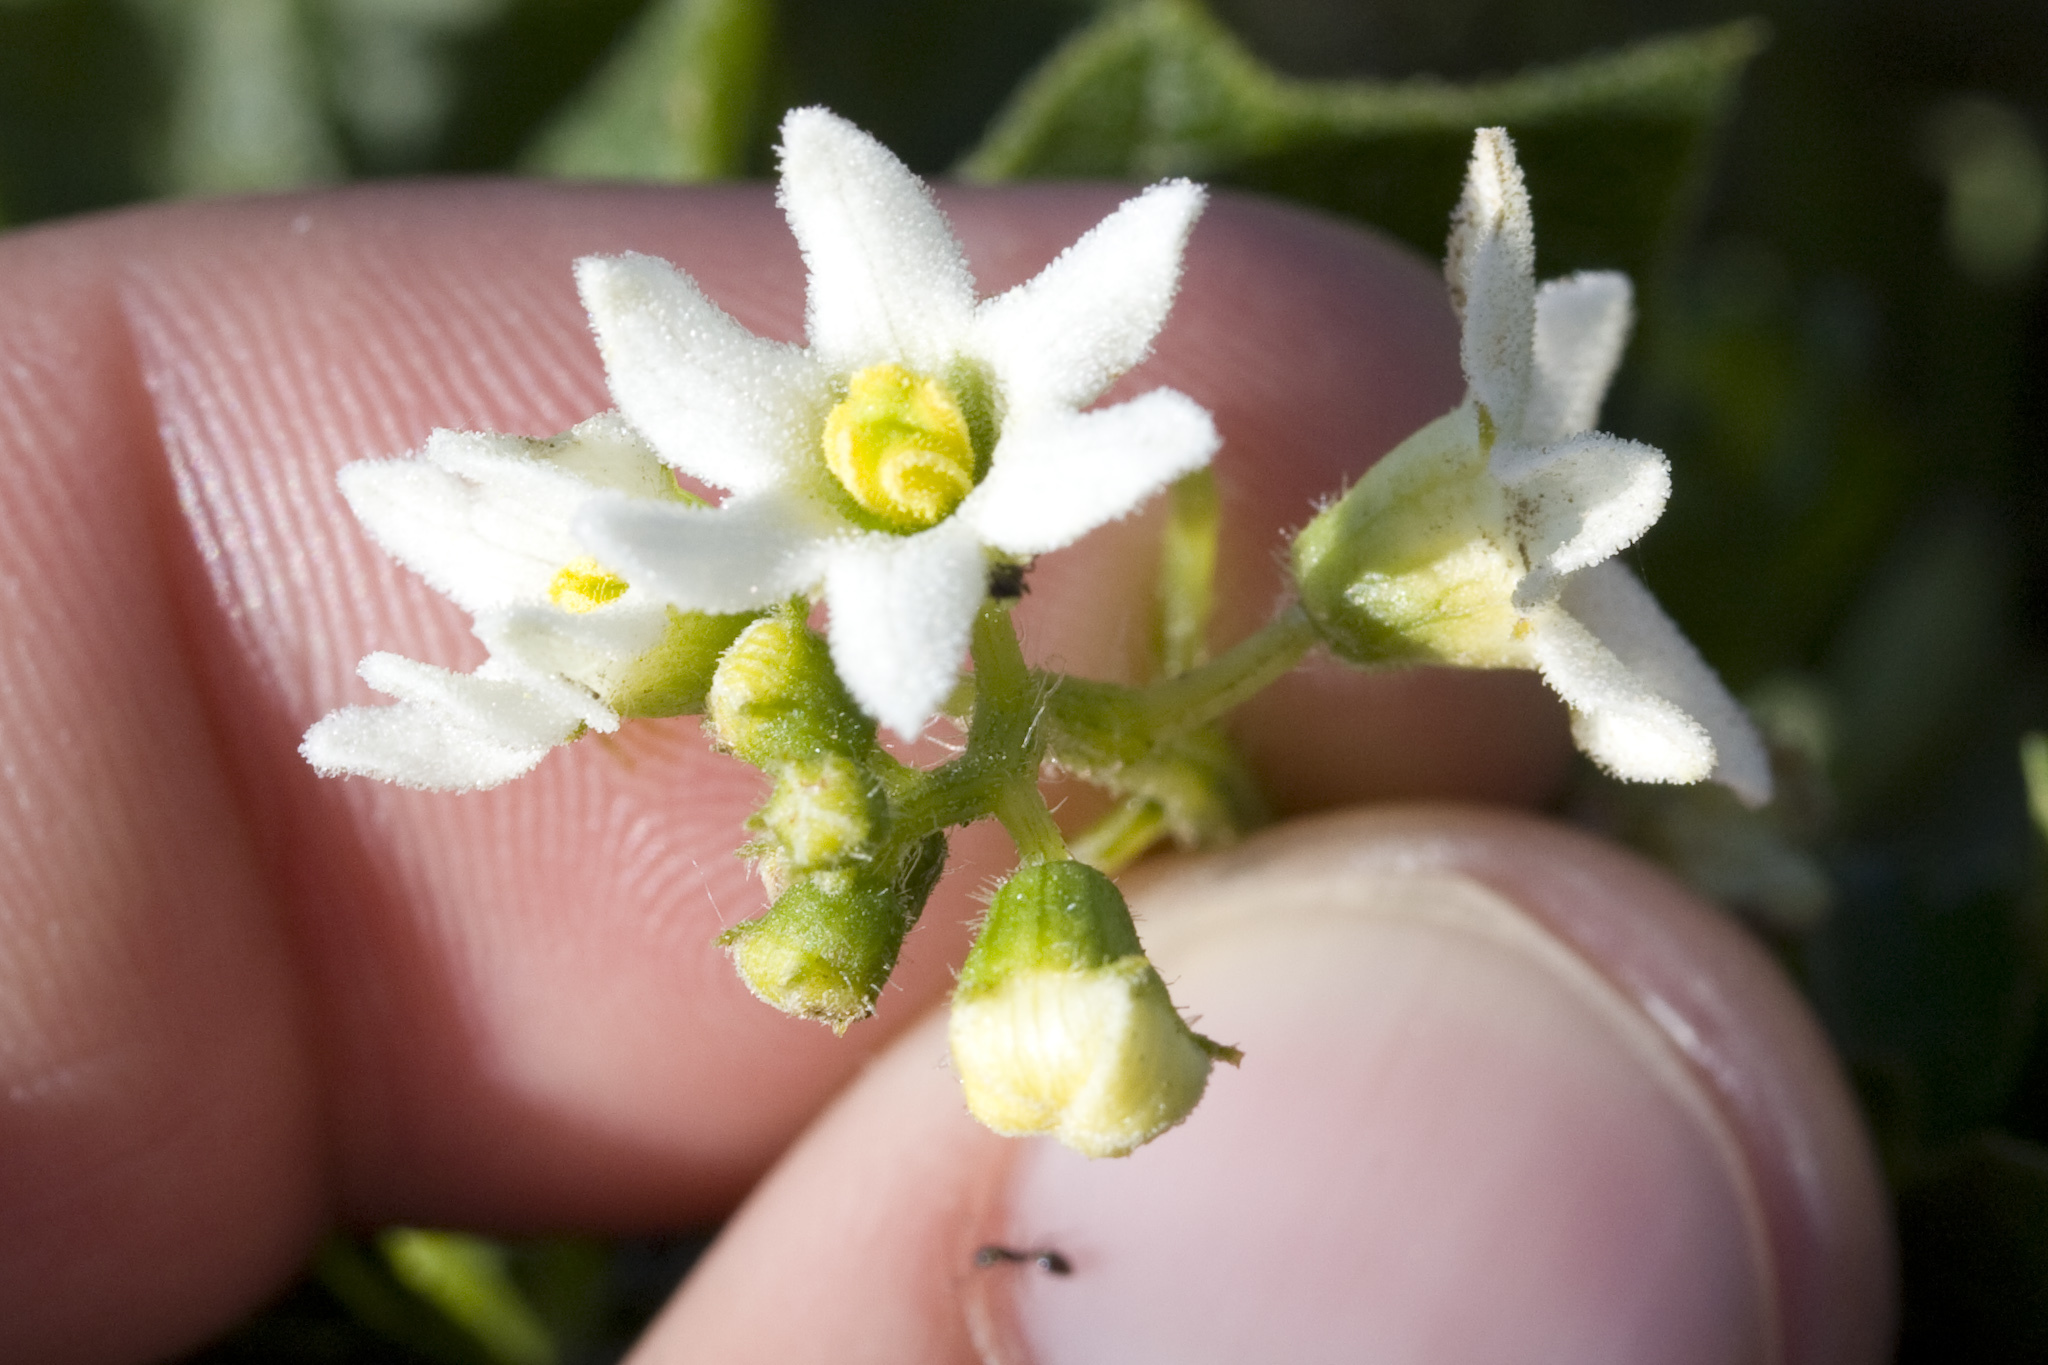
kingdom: Plantae
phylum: Tracheophyta
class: Magnoliopsida
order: Cucurbitales
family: Cucurbitaceae
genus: Marah
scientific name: Marah oregana
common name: Coastal manroot
